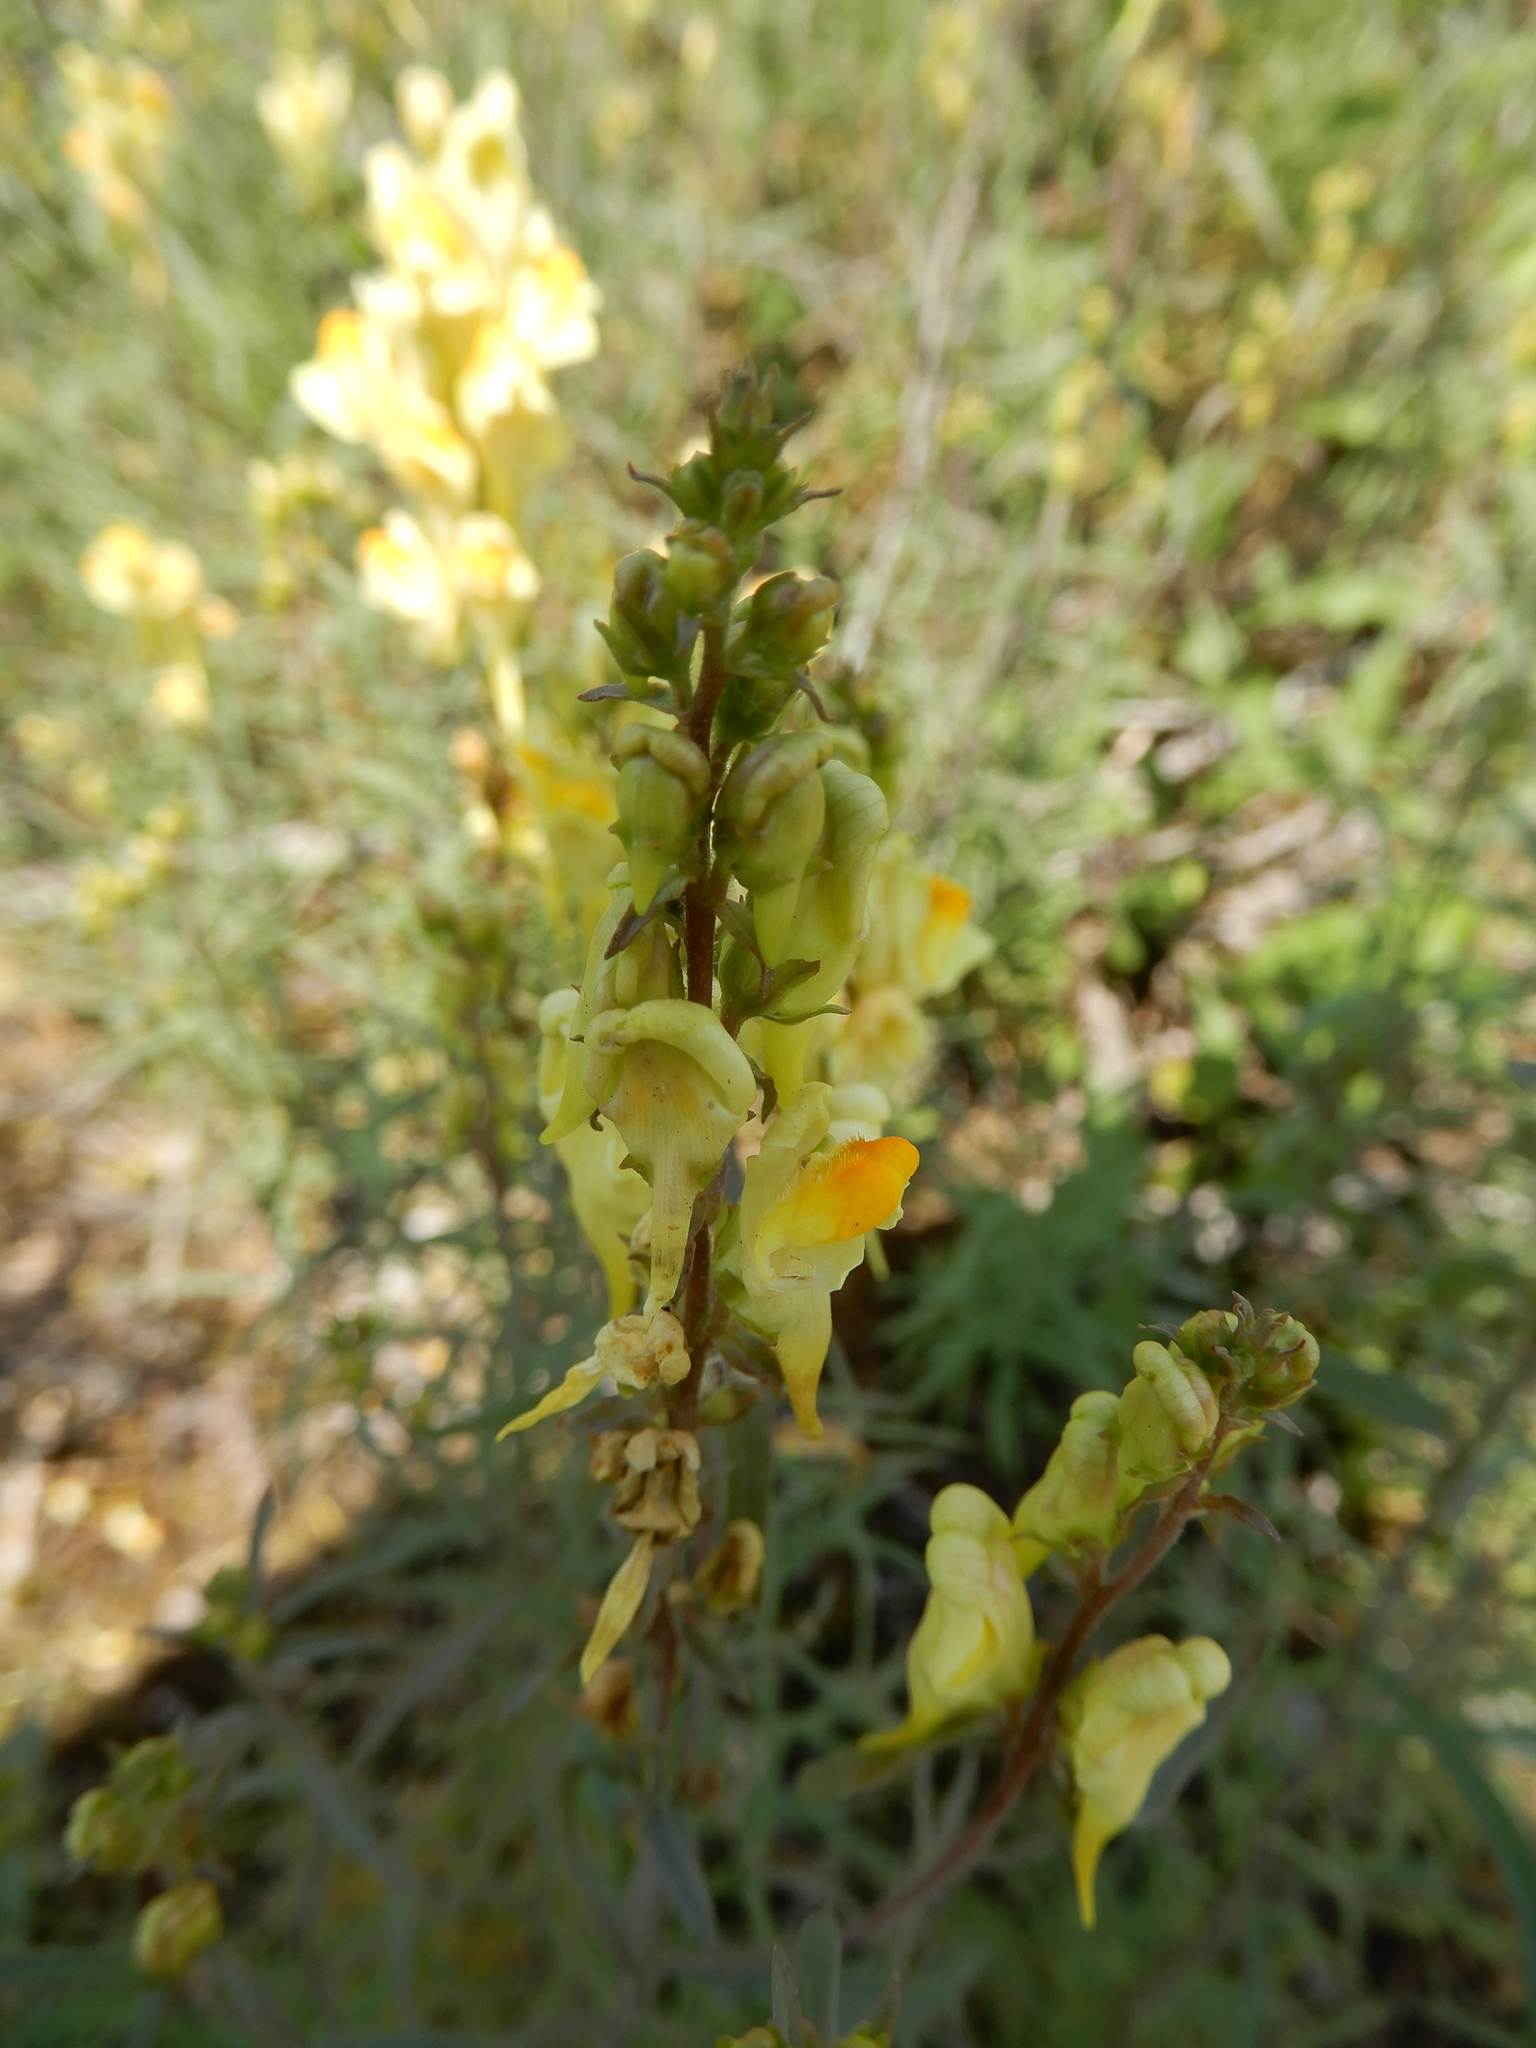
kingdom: Plantae
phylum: Tracheophyta
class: Magnoliopsida
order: Lamiales
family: Plantaginaceae
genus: Linaria
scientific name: Linaria vulgaris
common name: Butter and eggs
